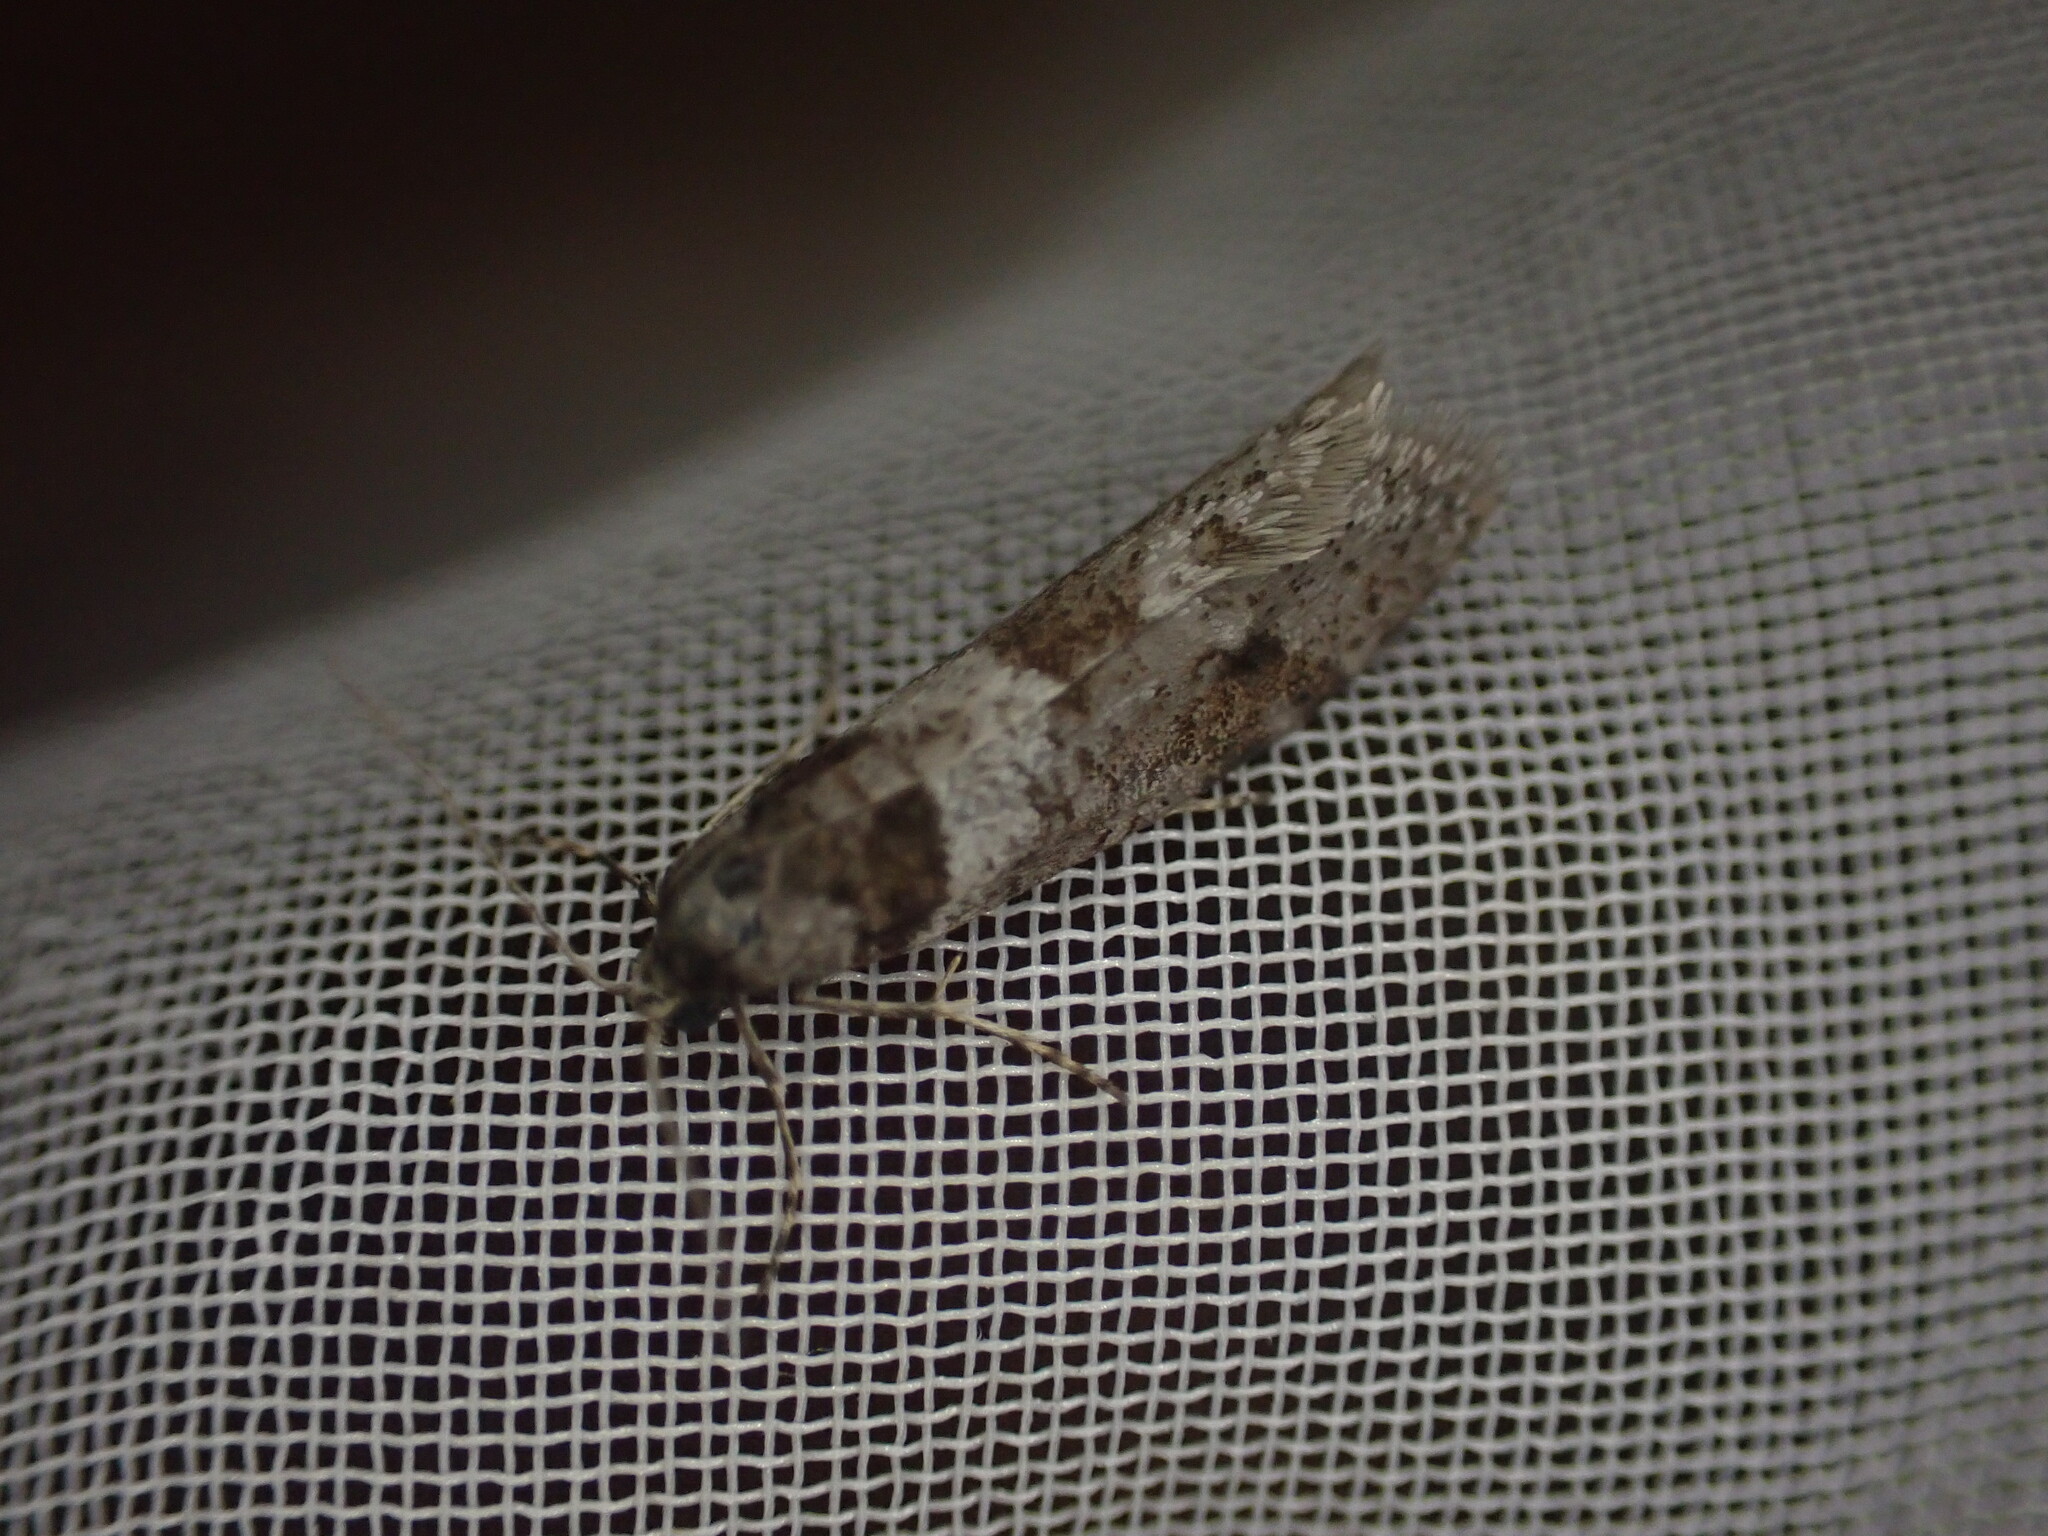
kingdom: Animalia
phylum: Arthropoda
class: Insecta
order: Lepidoptera
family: Psychidae
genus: Lepidoscia
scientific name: Lepidoscia heliochares
